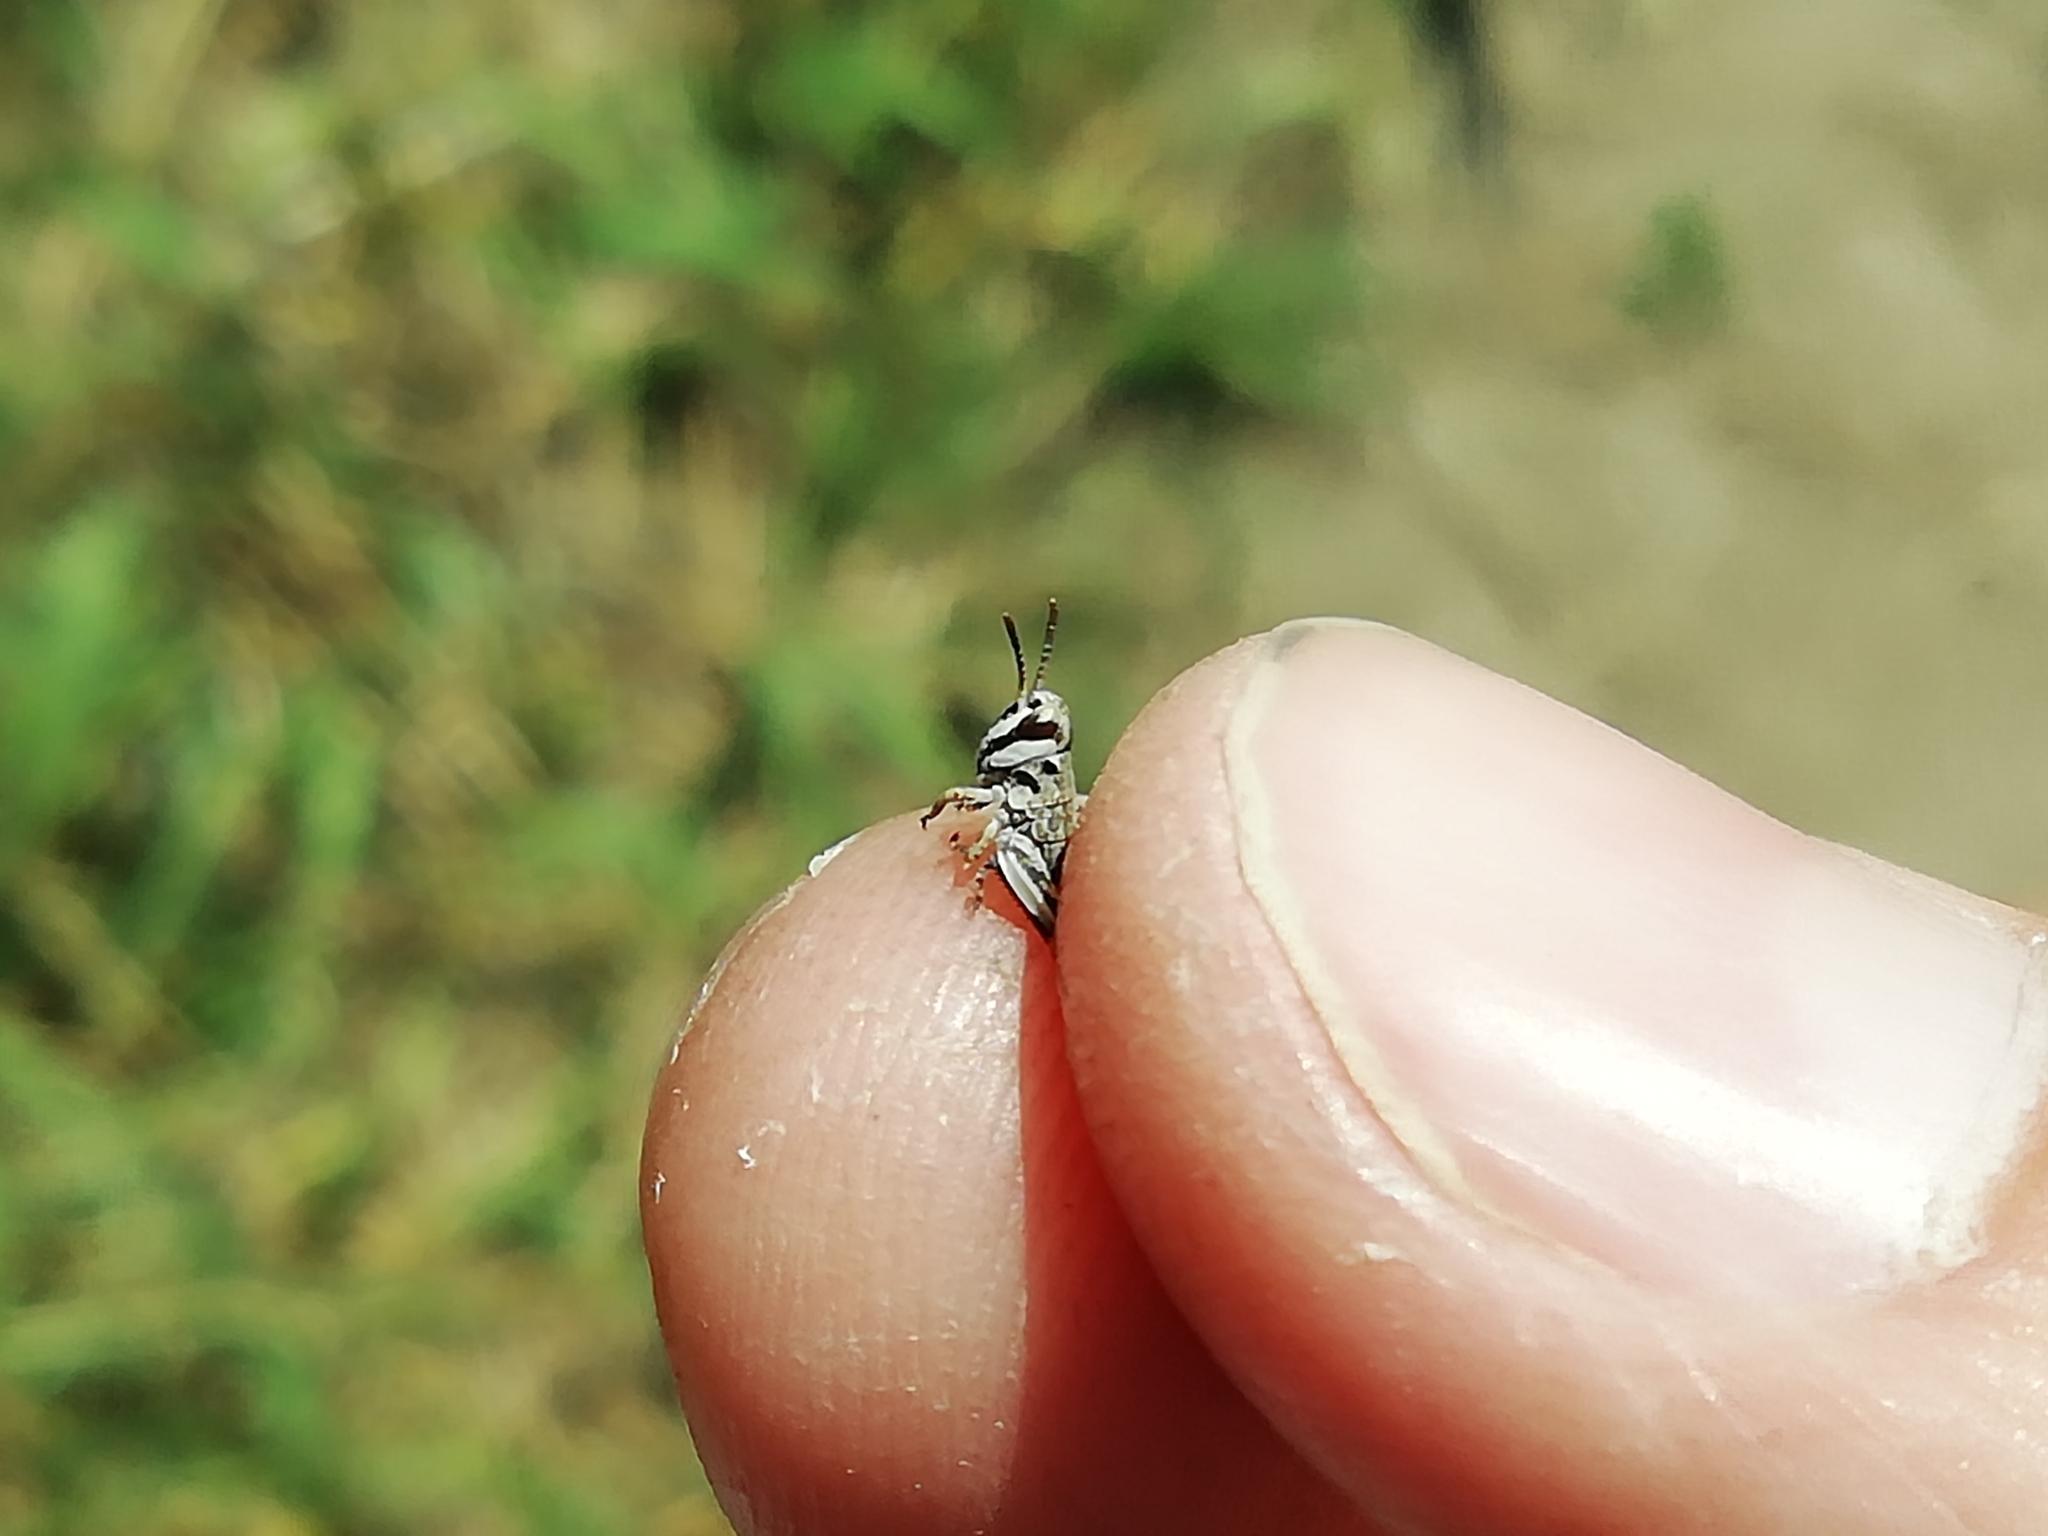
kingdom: Animalia
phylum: Arthropoda
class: Insecta
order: Orthoptera
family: Acrididae
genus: Dociostaurus
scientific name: Dociostaurus brevicollis
